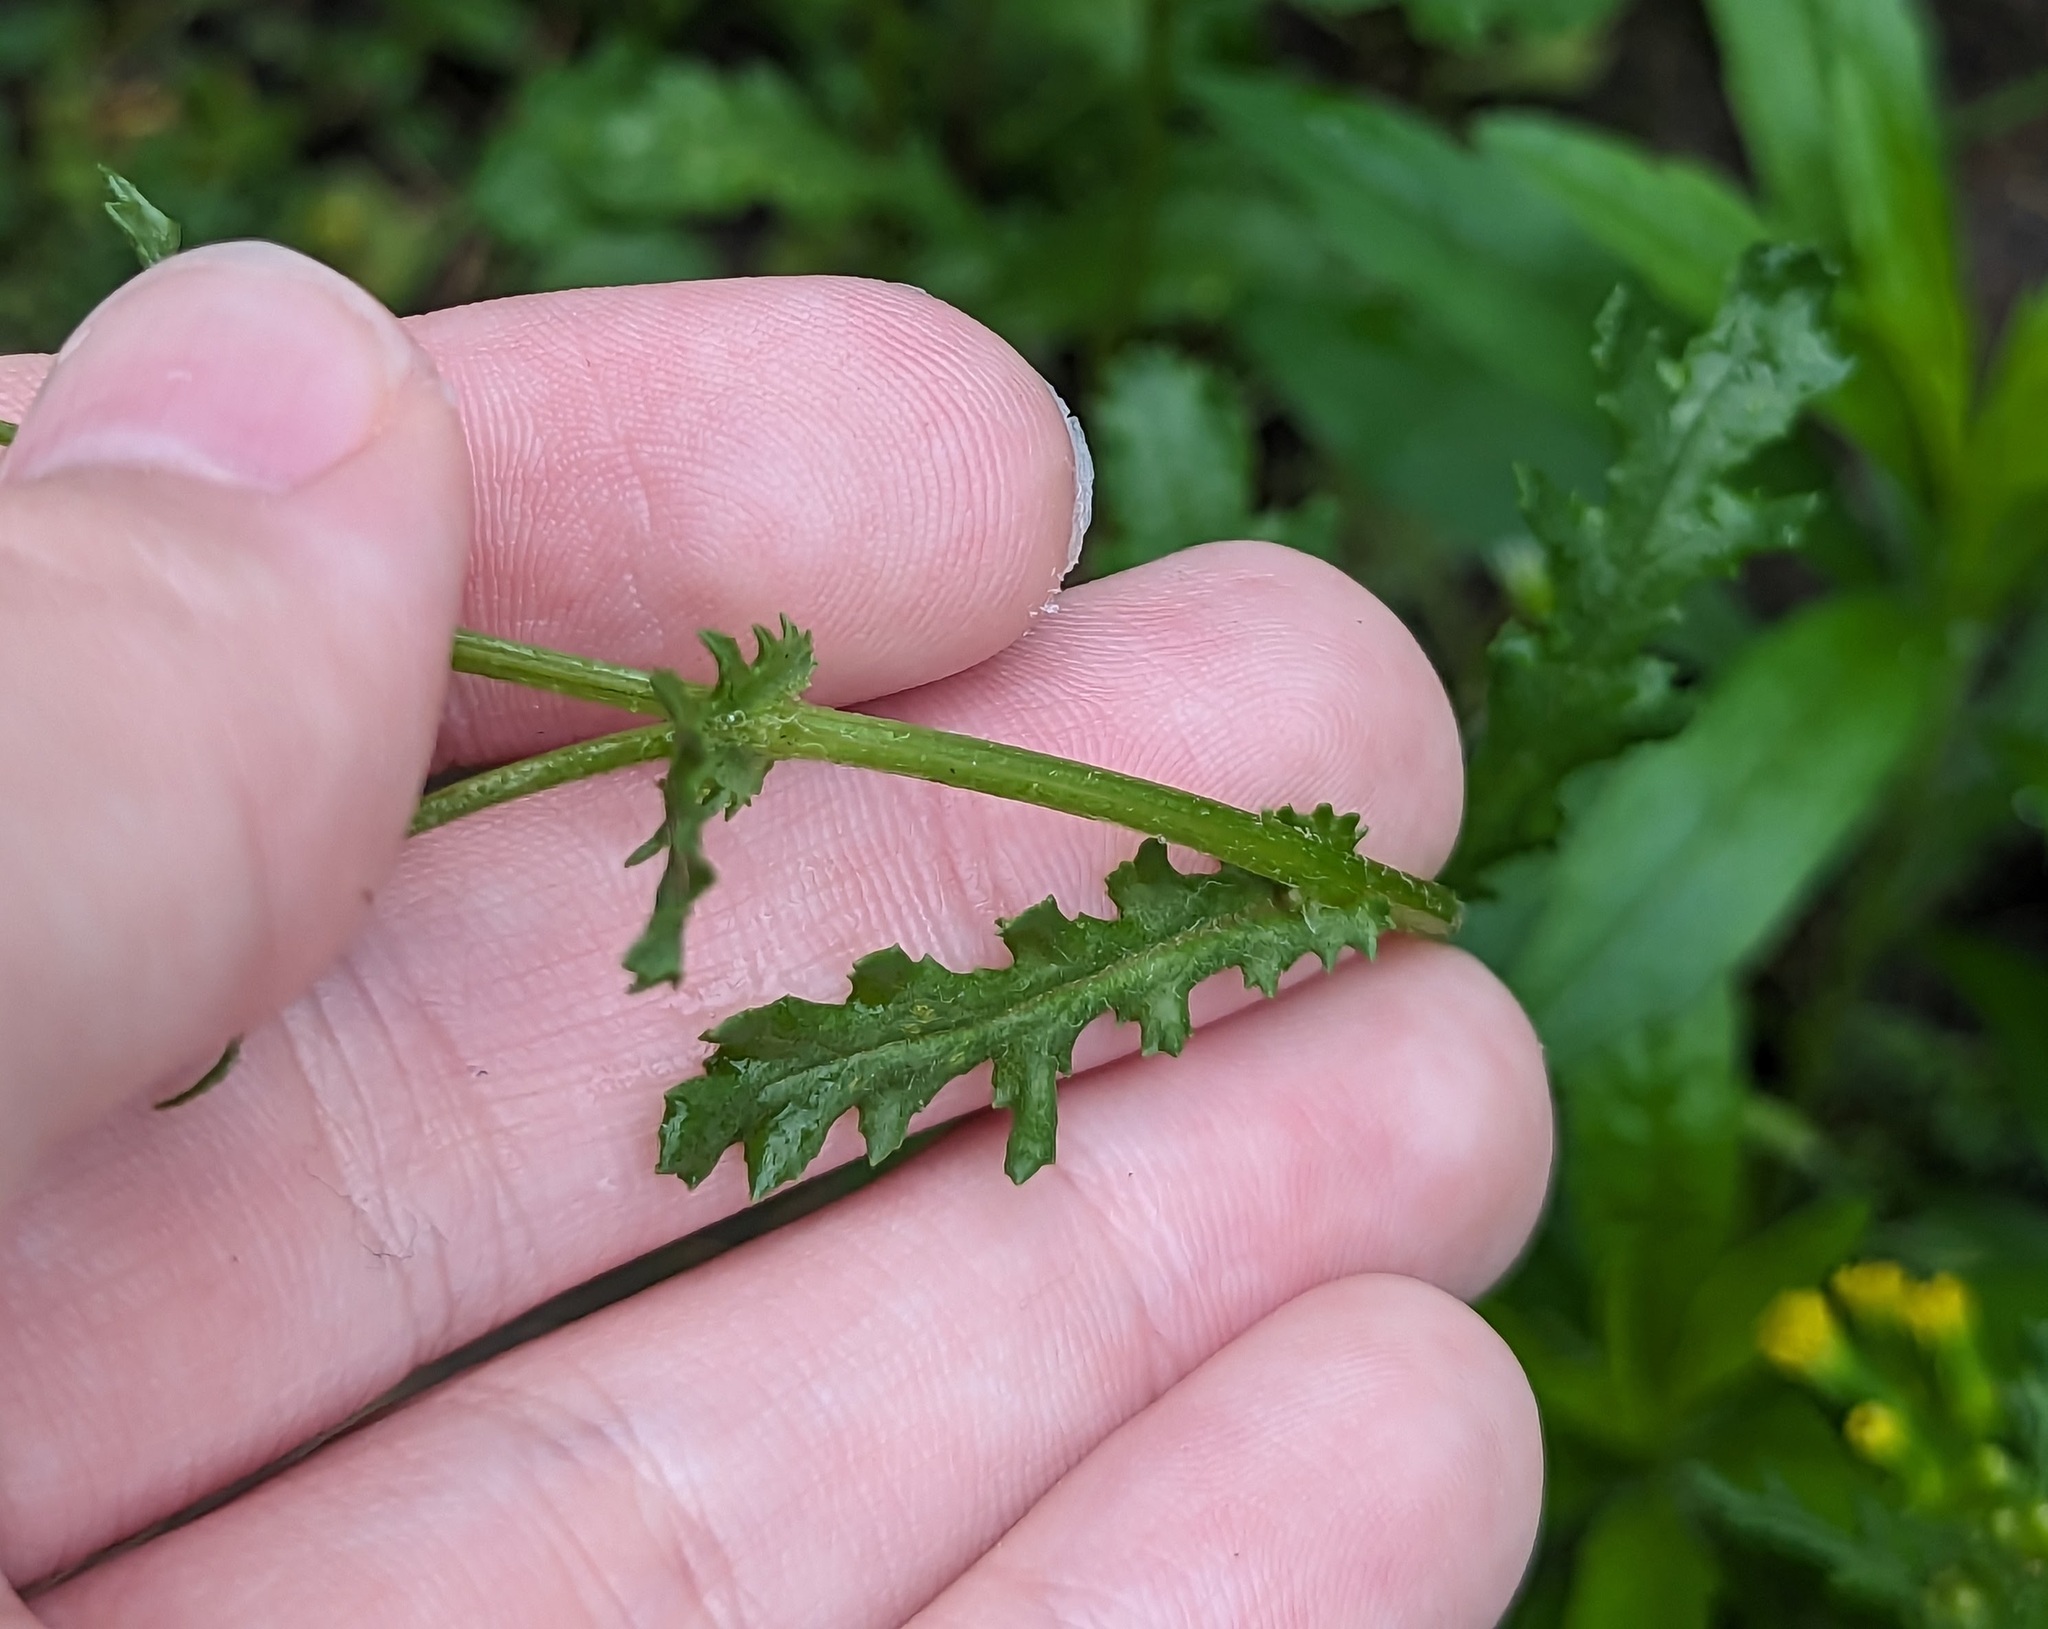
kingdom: Plantae
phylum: Tracheophyta
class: Magnoliopsida
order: Asterales
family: Asteraceae
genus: Senecio
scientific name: Senecio vulgaris
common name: Old-man-in-the-spring
